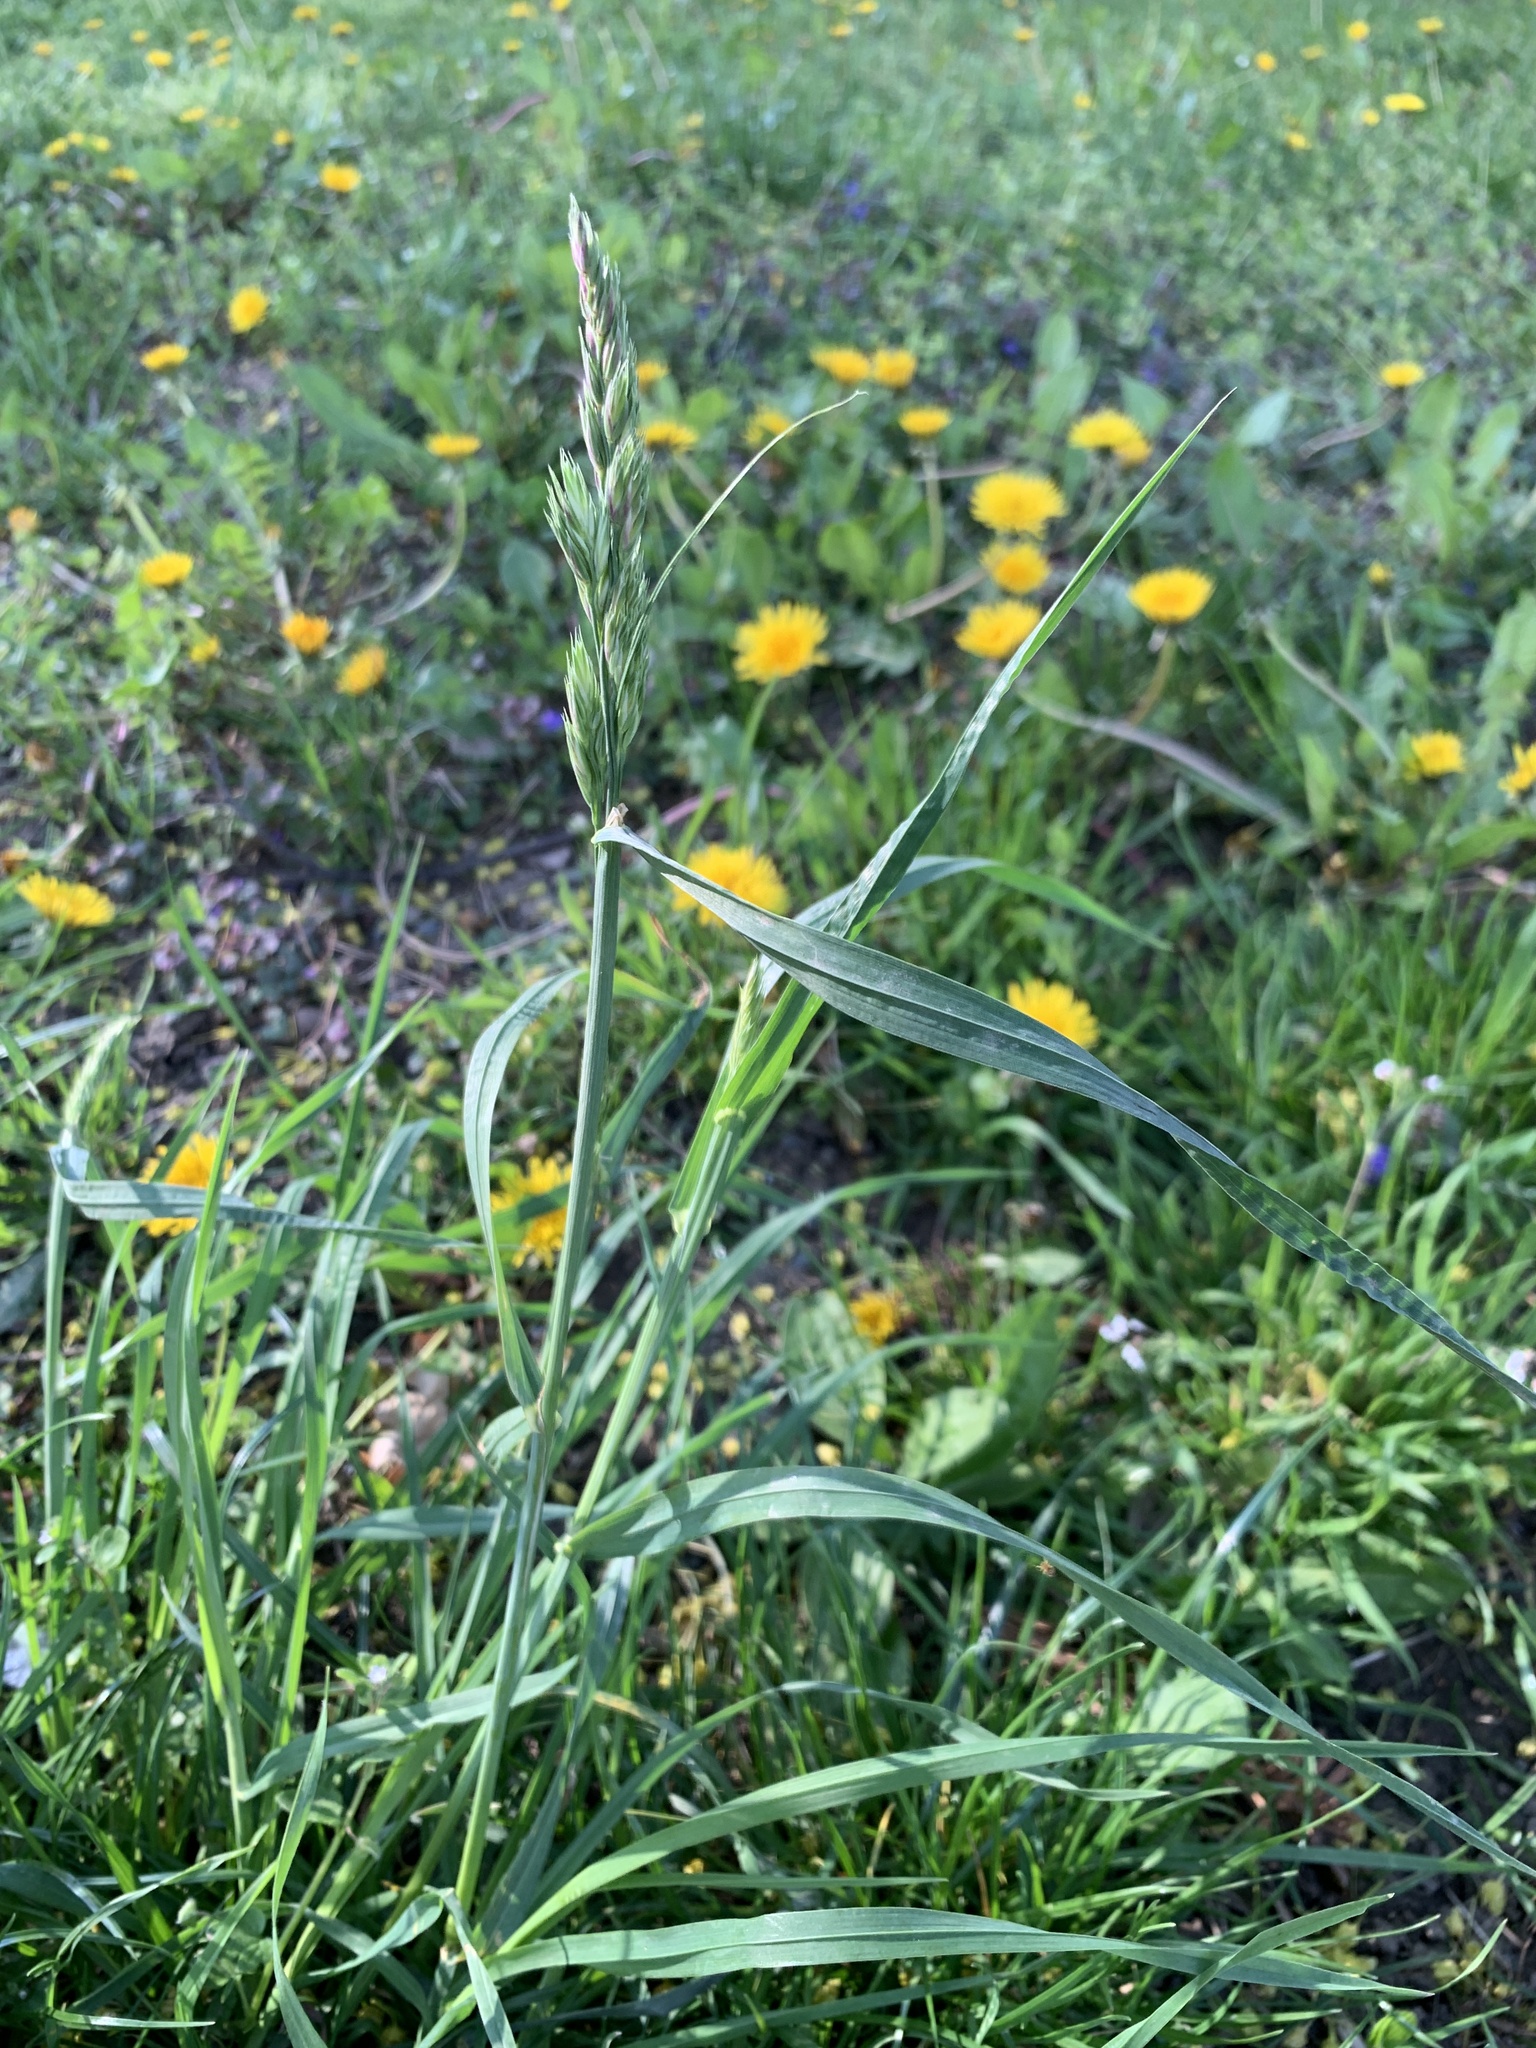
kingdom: Plantae
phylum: Tracheophyta
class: Liliopsida
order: Poales
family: Poaceae
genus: Dactylis
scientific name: Dactylis glomerata
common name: Orchardgrass
